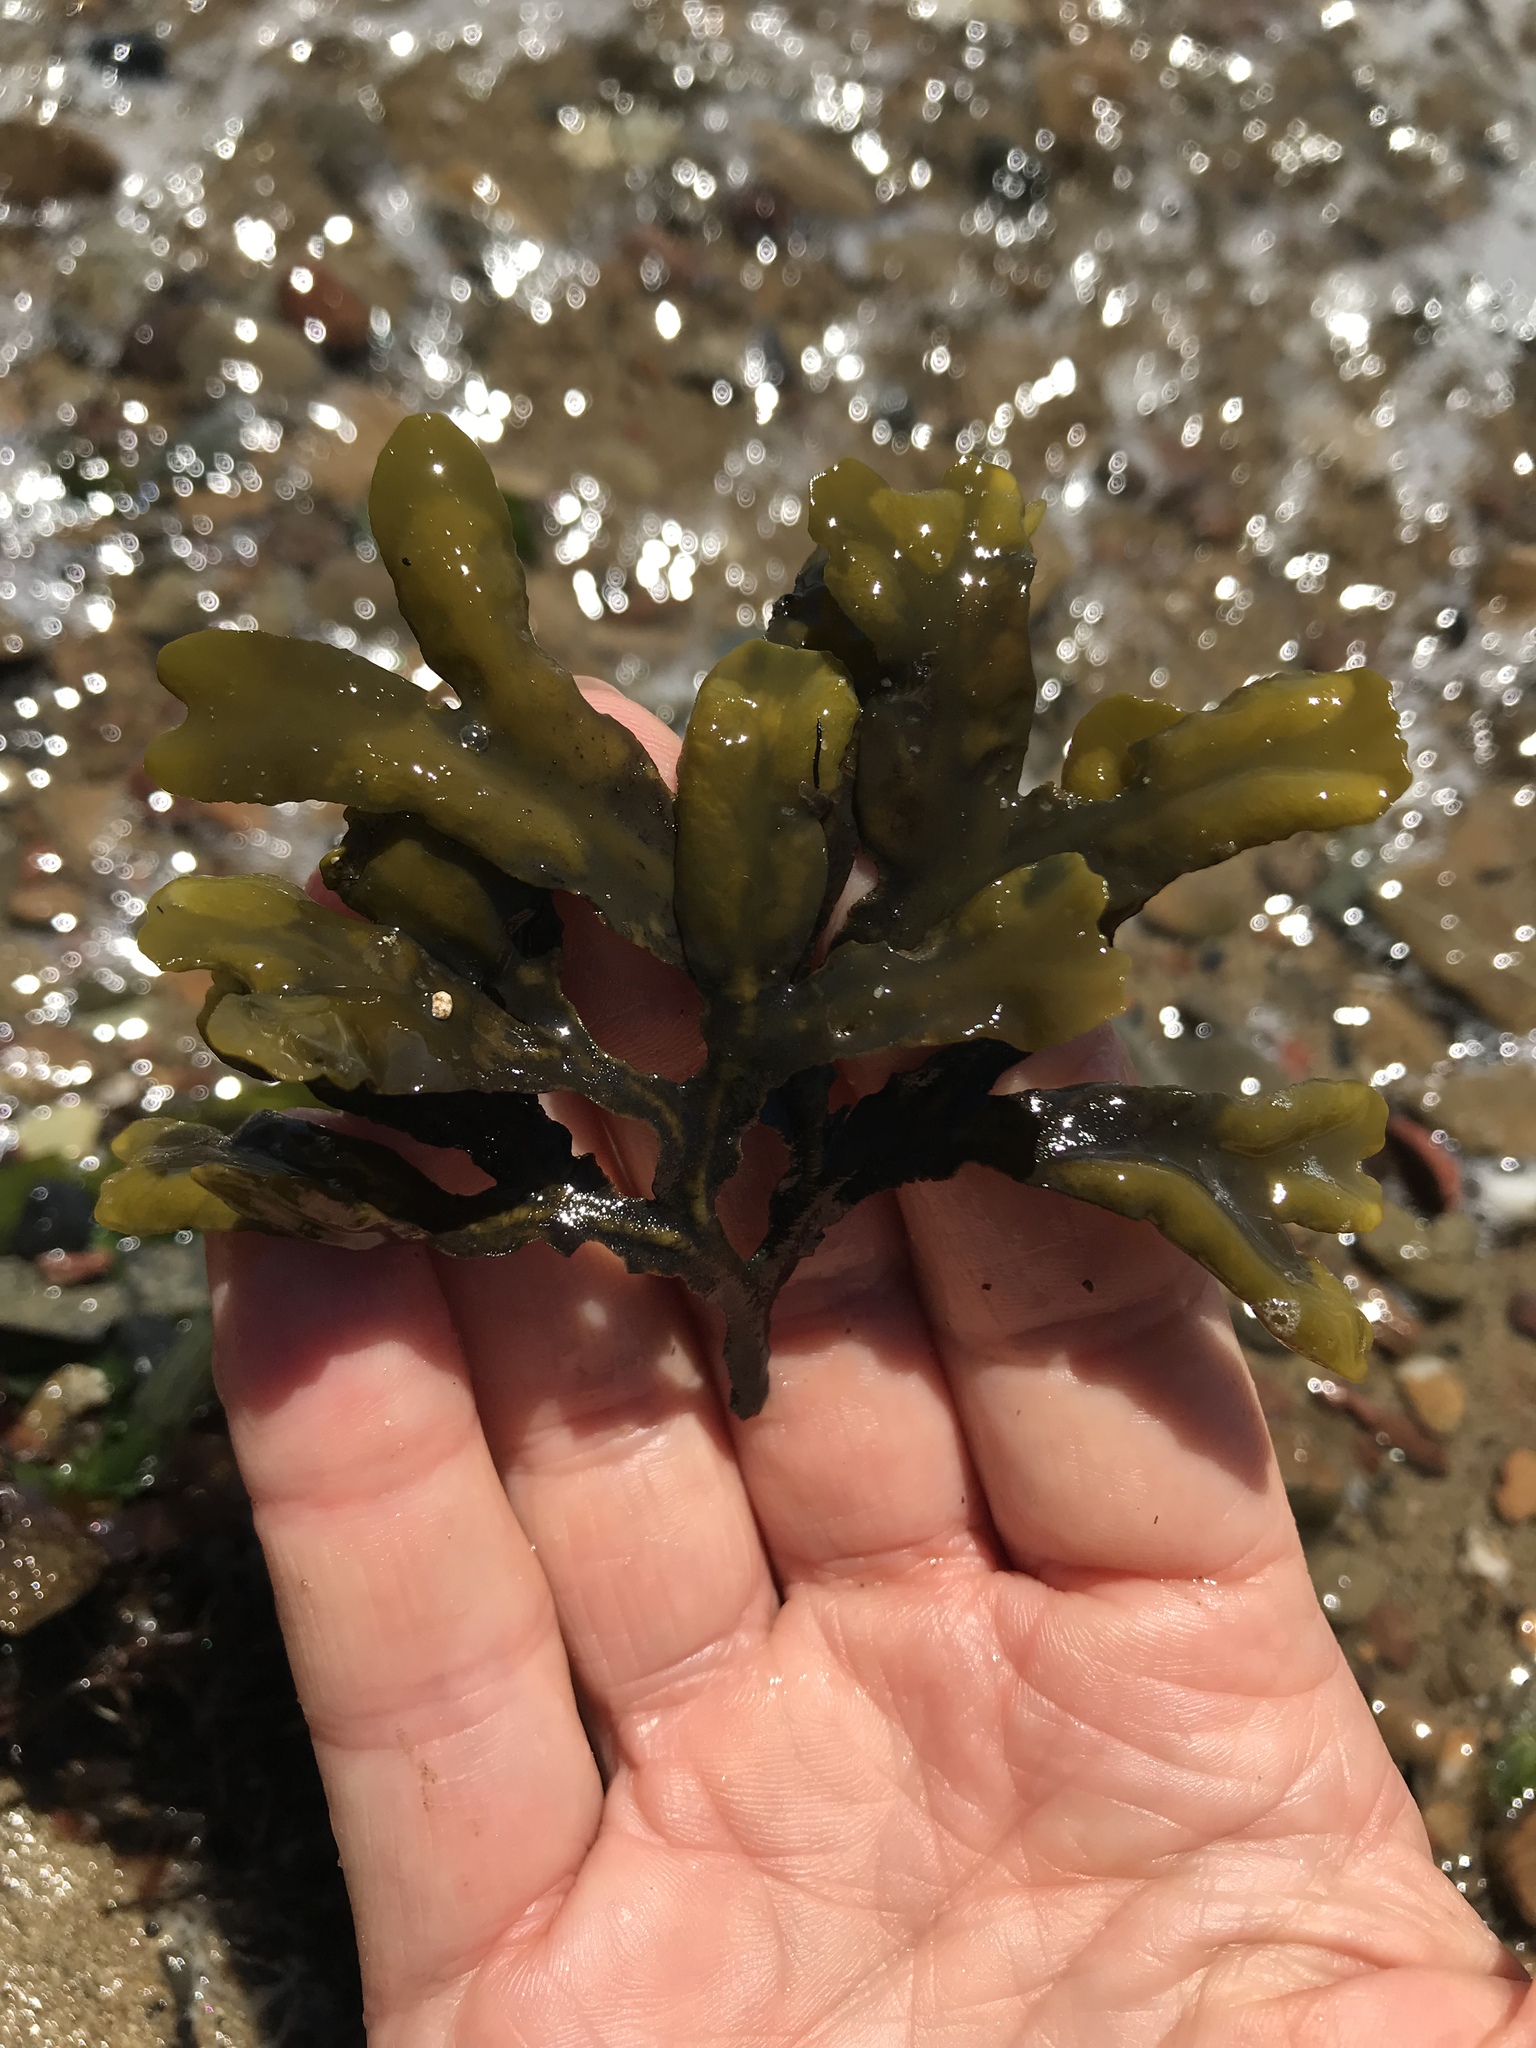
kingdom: Chromista
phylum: Ochrophyta
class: Phaeophyceae
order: Fucales
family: Fucaceae
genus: Fucus
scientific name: Fucus distichus
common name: Rockweed
